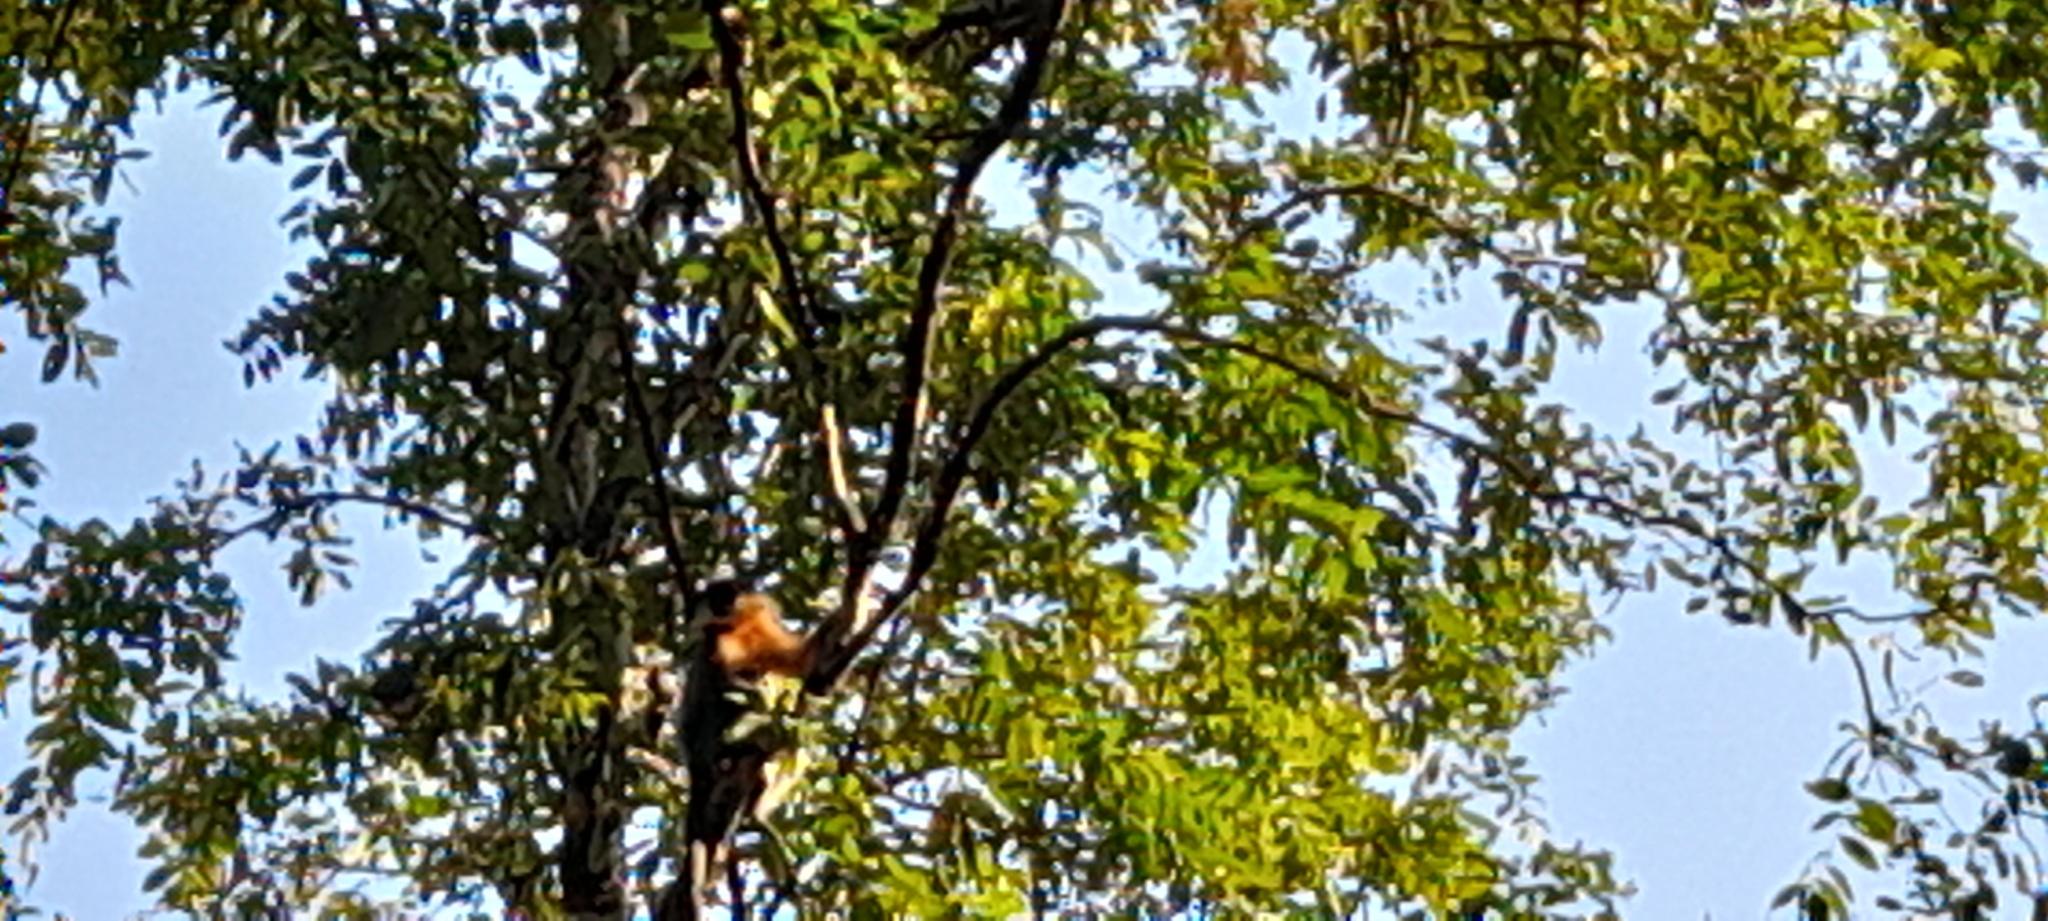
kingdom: Animalia
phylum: Chordata
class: Mammalia
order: Primates
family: Cercopithecidae
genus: Trachypithecus
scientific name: Trachypithecus pileatus
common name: Capped langur
